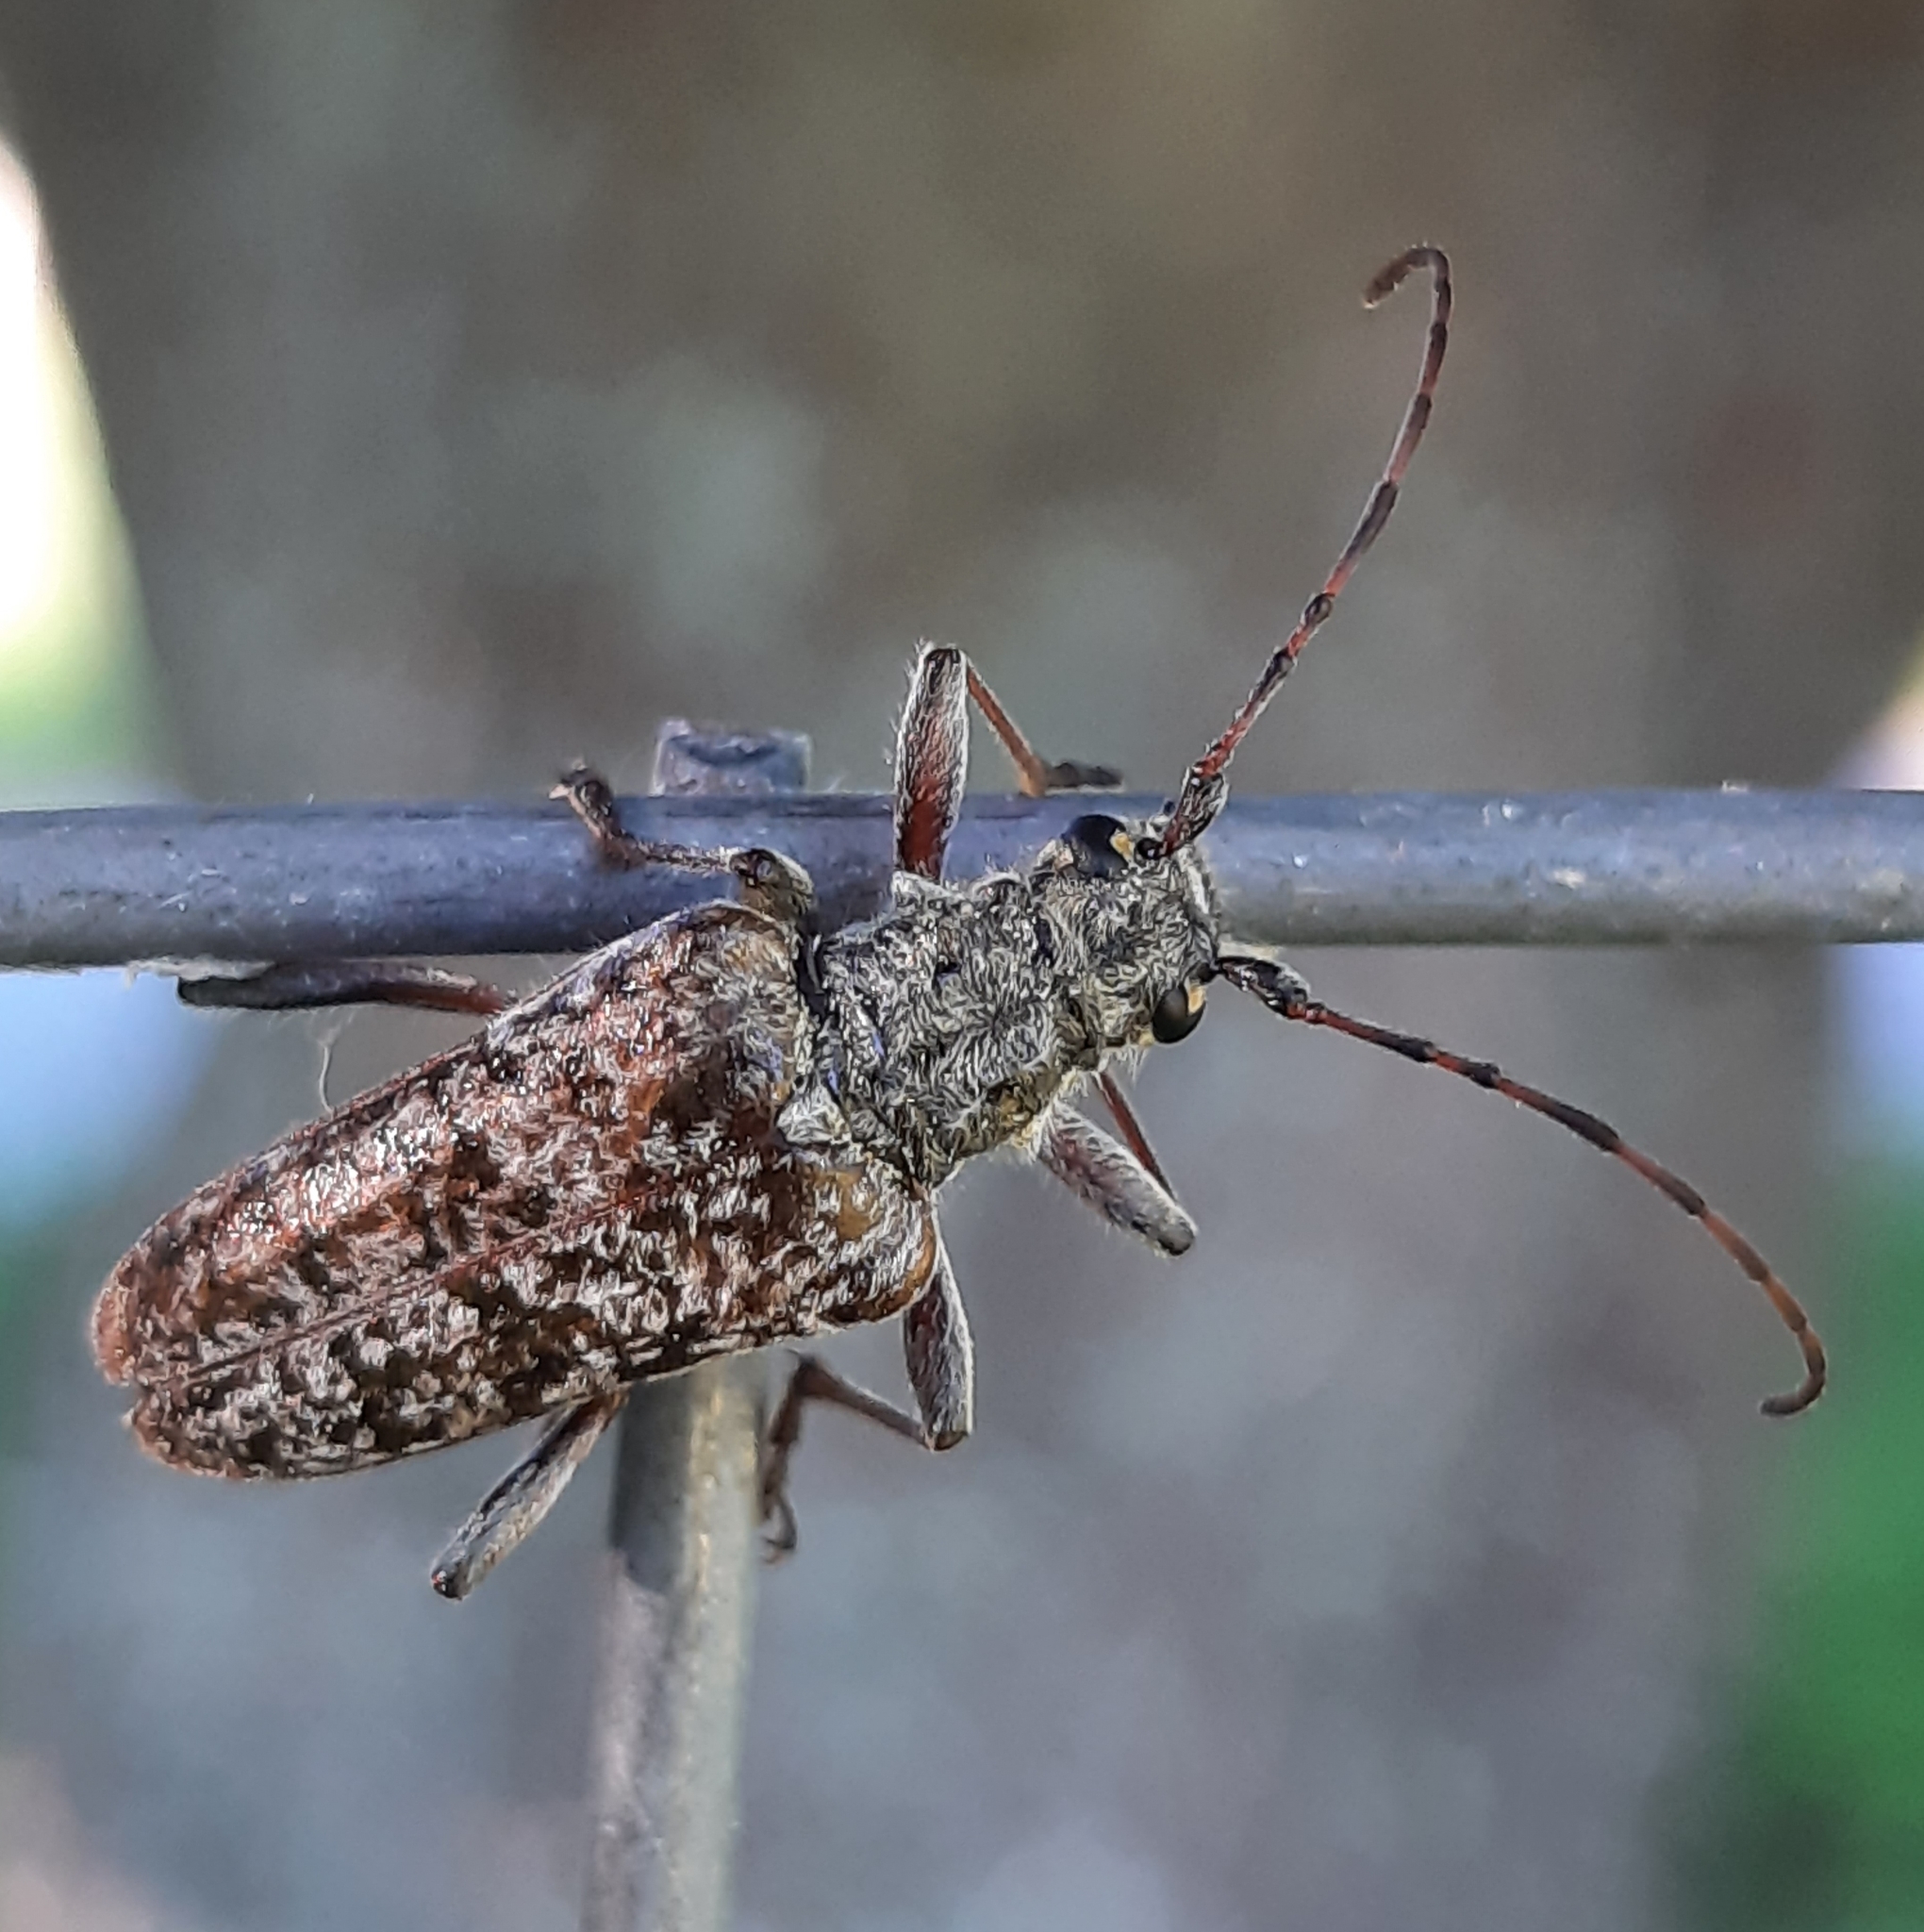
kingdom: Animalia
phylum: Arthropoda
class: Insecta
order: Coleoptera
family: Cerambycidae
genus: Anthophylax
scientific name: Anthophylax attenuatus
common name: Mottled longhorned beetle
